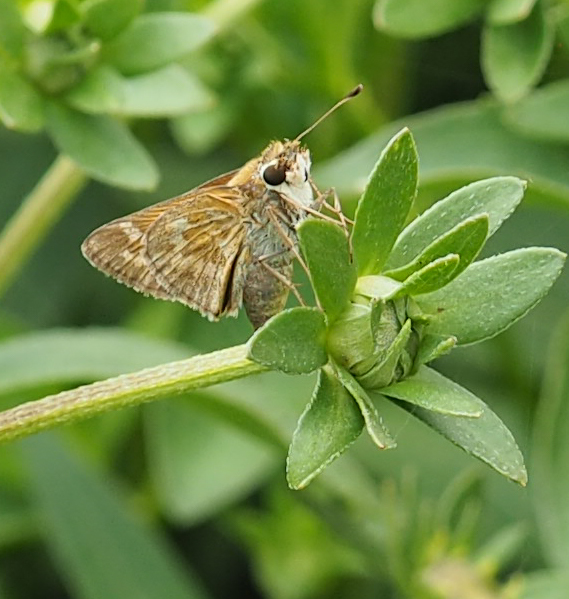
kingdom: Animalia
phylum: Arthropoda
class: Insecta
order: Lepidoptera
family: Hesperiidae
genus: Atalopedes
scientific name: Atalopedes
